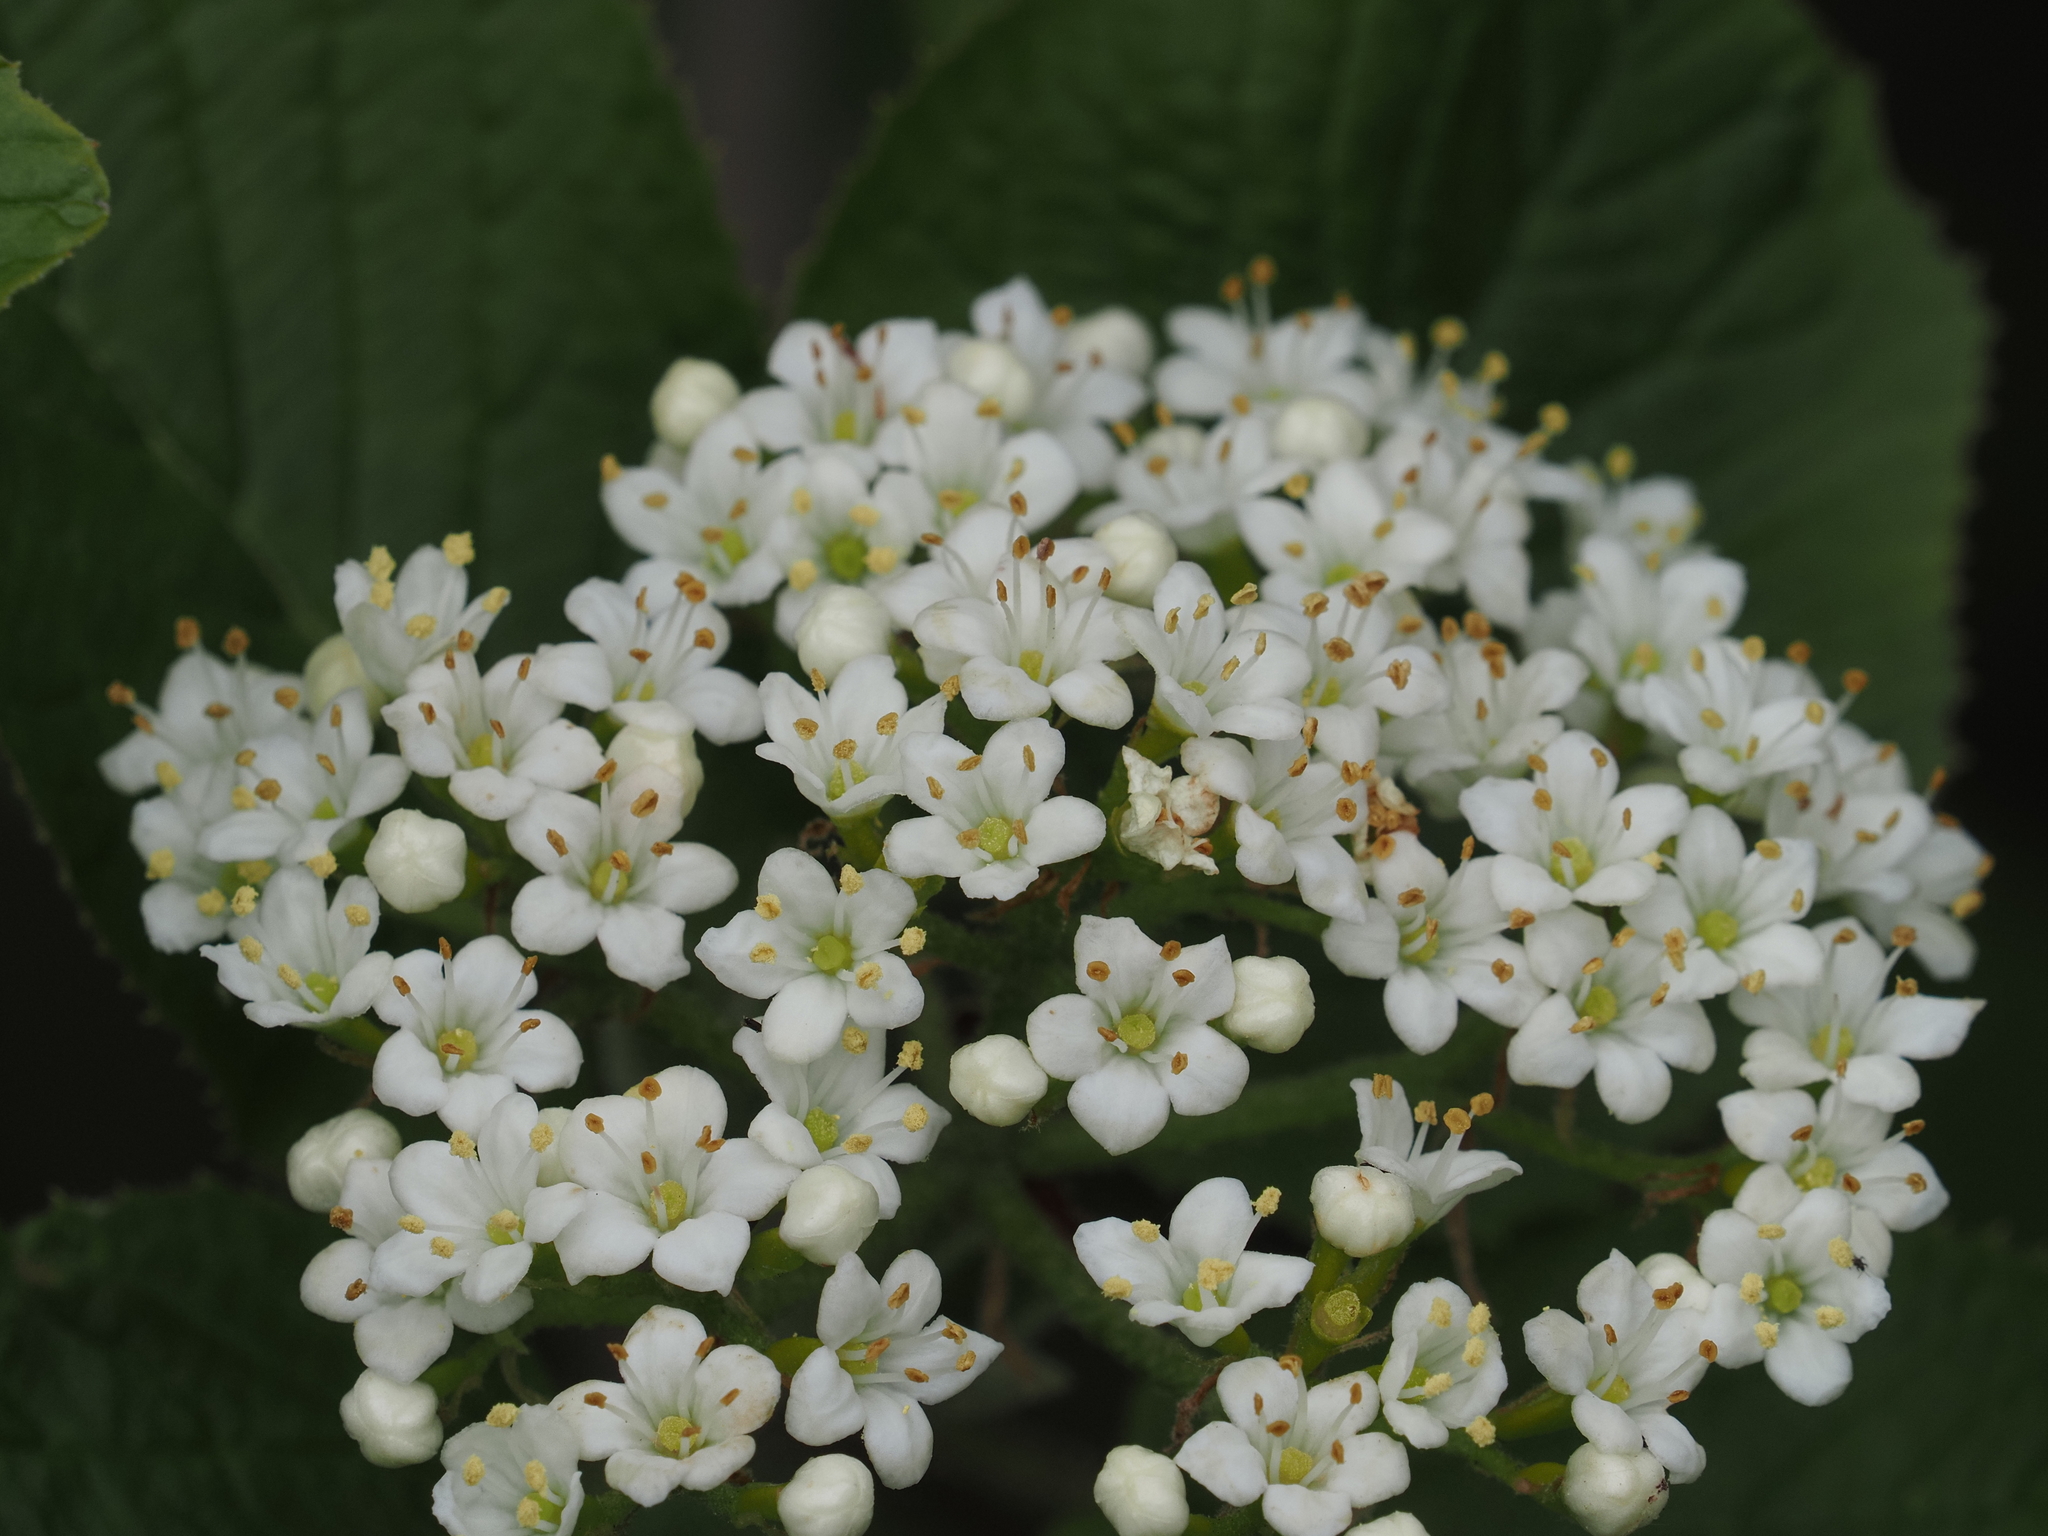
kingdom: Plantae
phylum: Tracheophyta
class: Magnoliopsida
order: Dipsacales
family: Viburnaceae
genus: Viburnum
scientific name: Viburnum lantana
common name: Wayfaring tree
